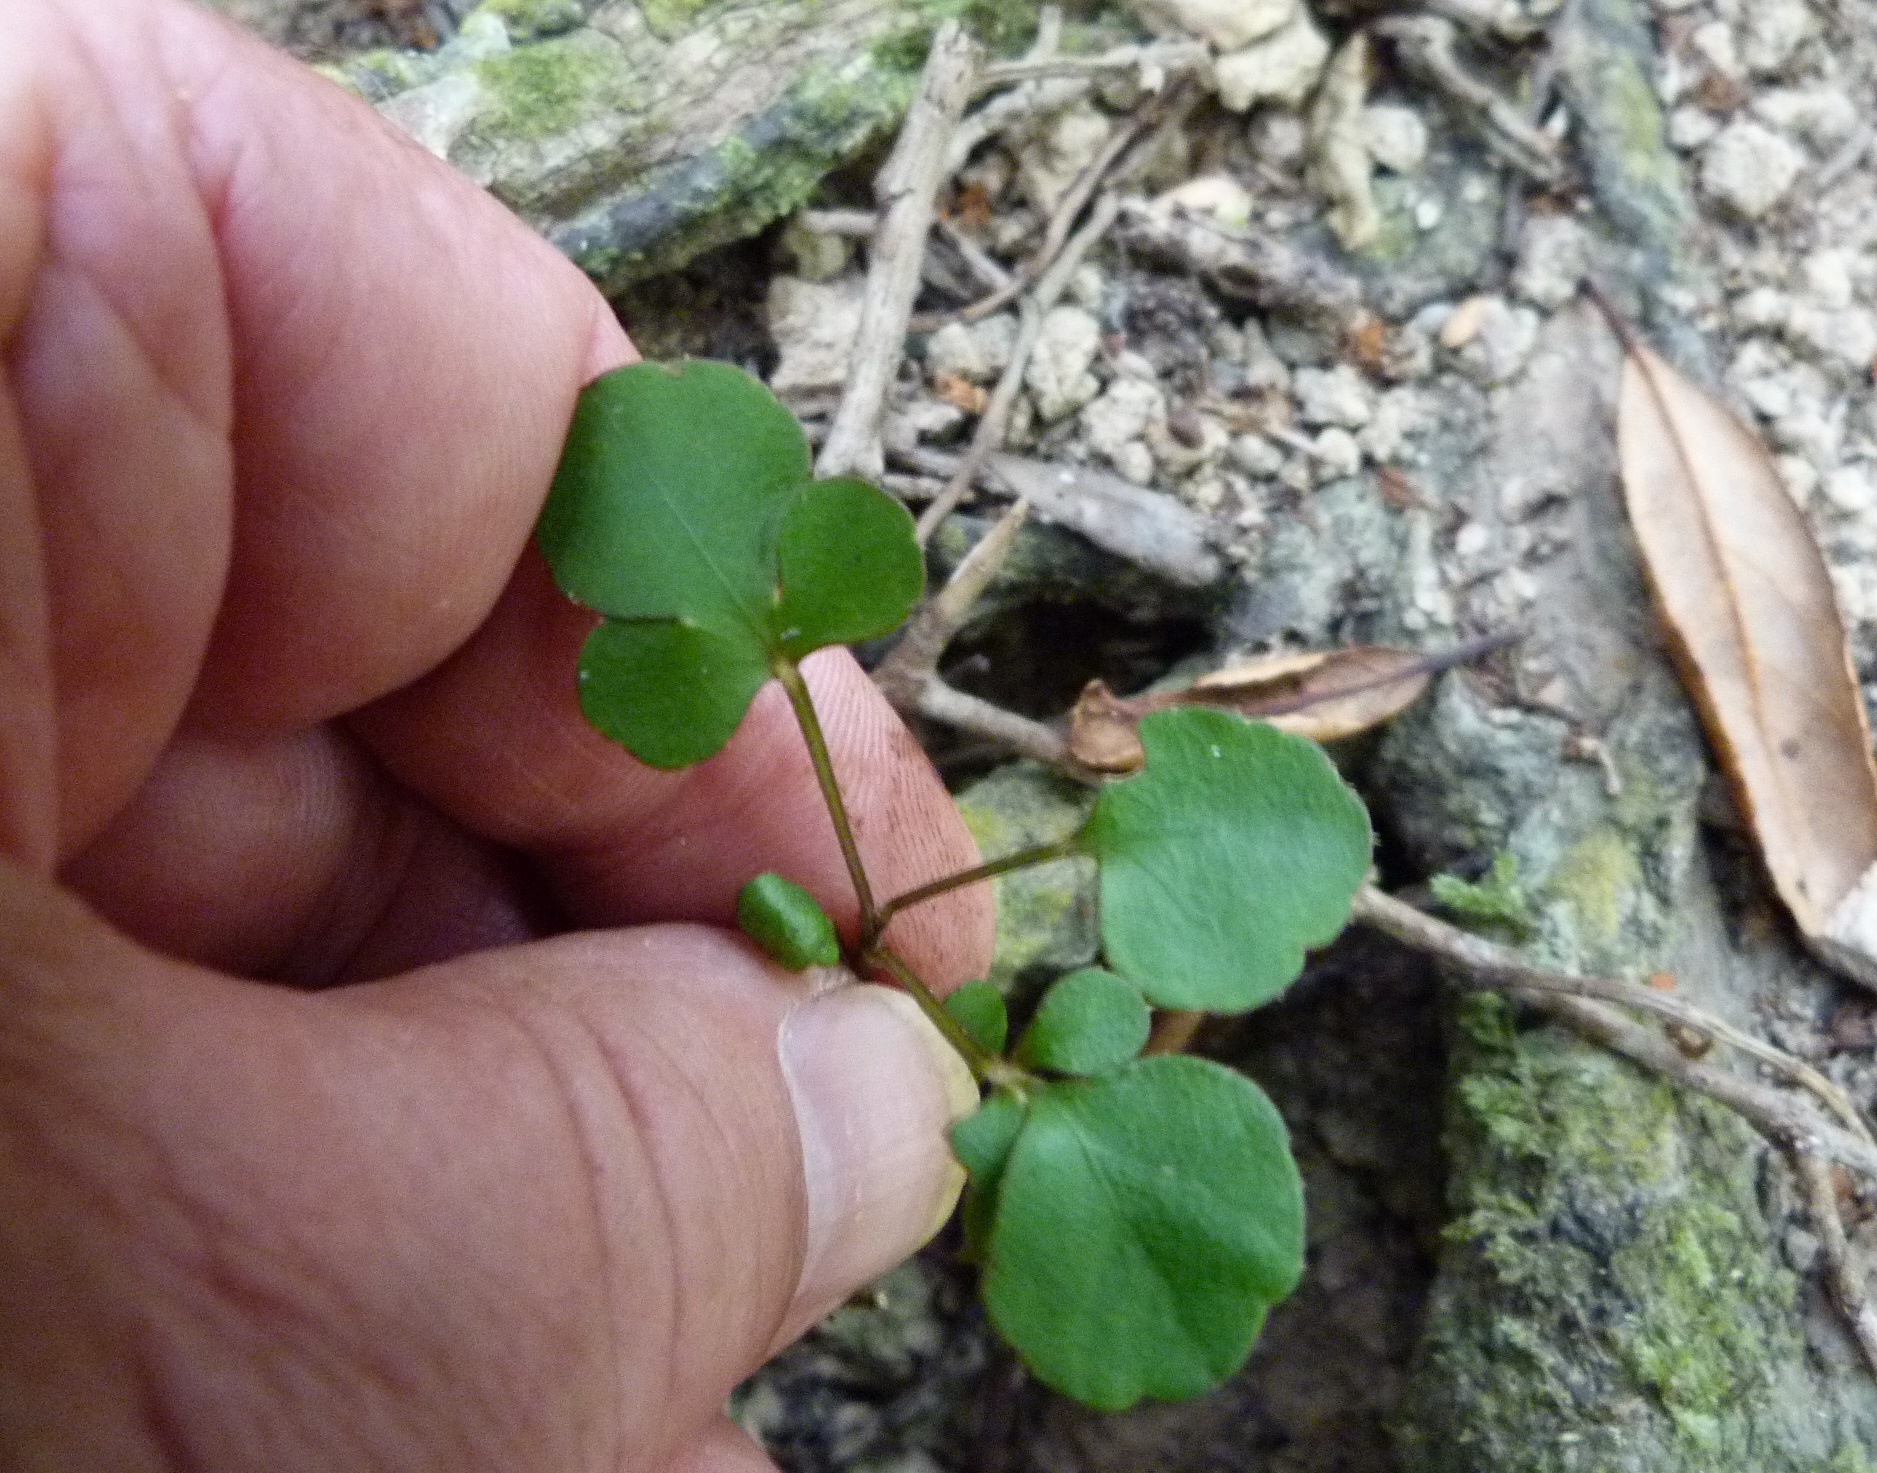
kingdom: Plantae
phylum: Tracheophyta
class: Magnoliopsida
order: Sapindales
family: Rutaceae
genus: Melicope
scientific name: Melicope simplex
